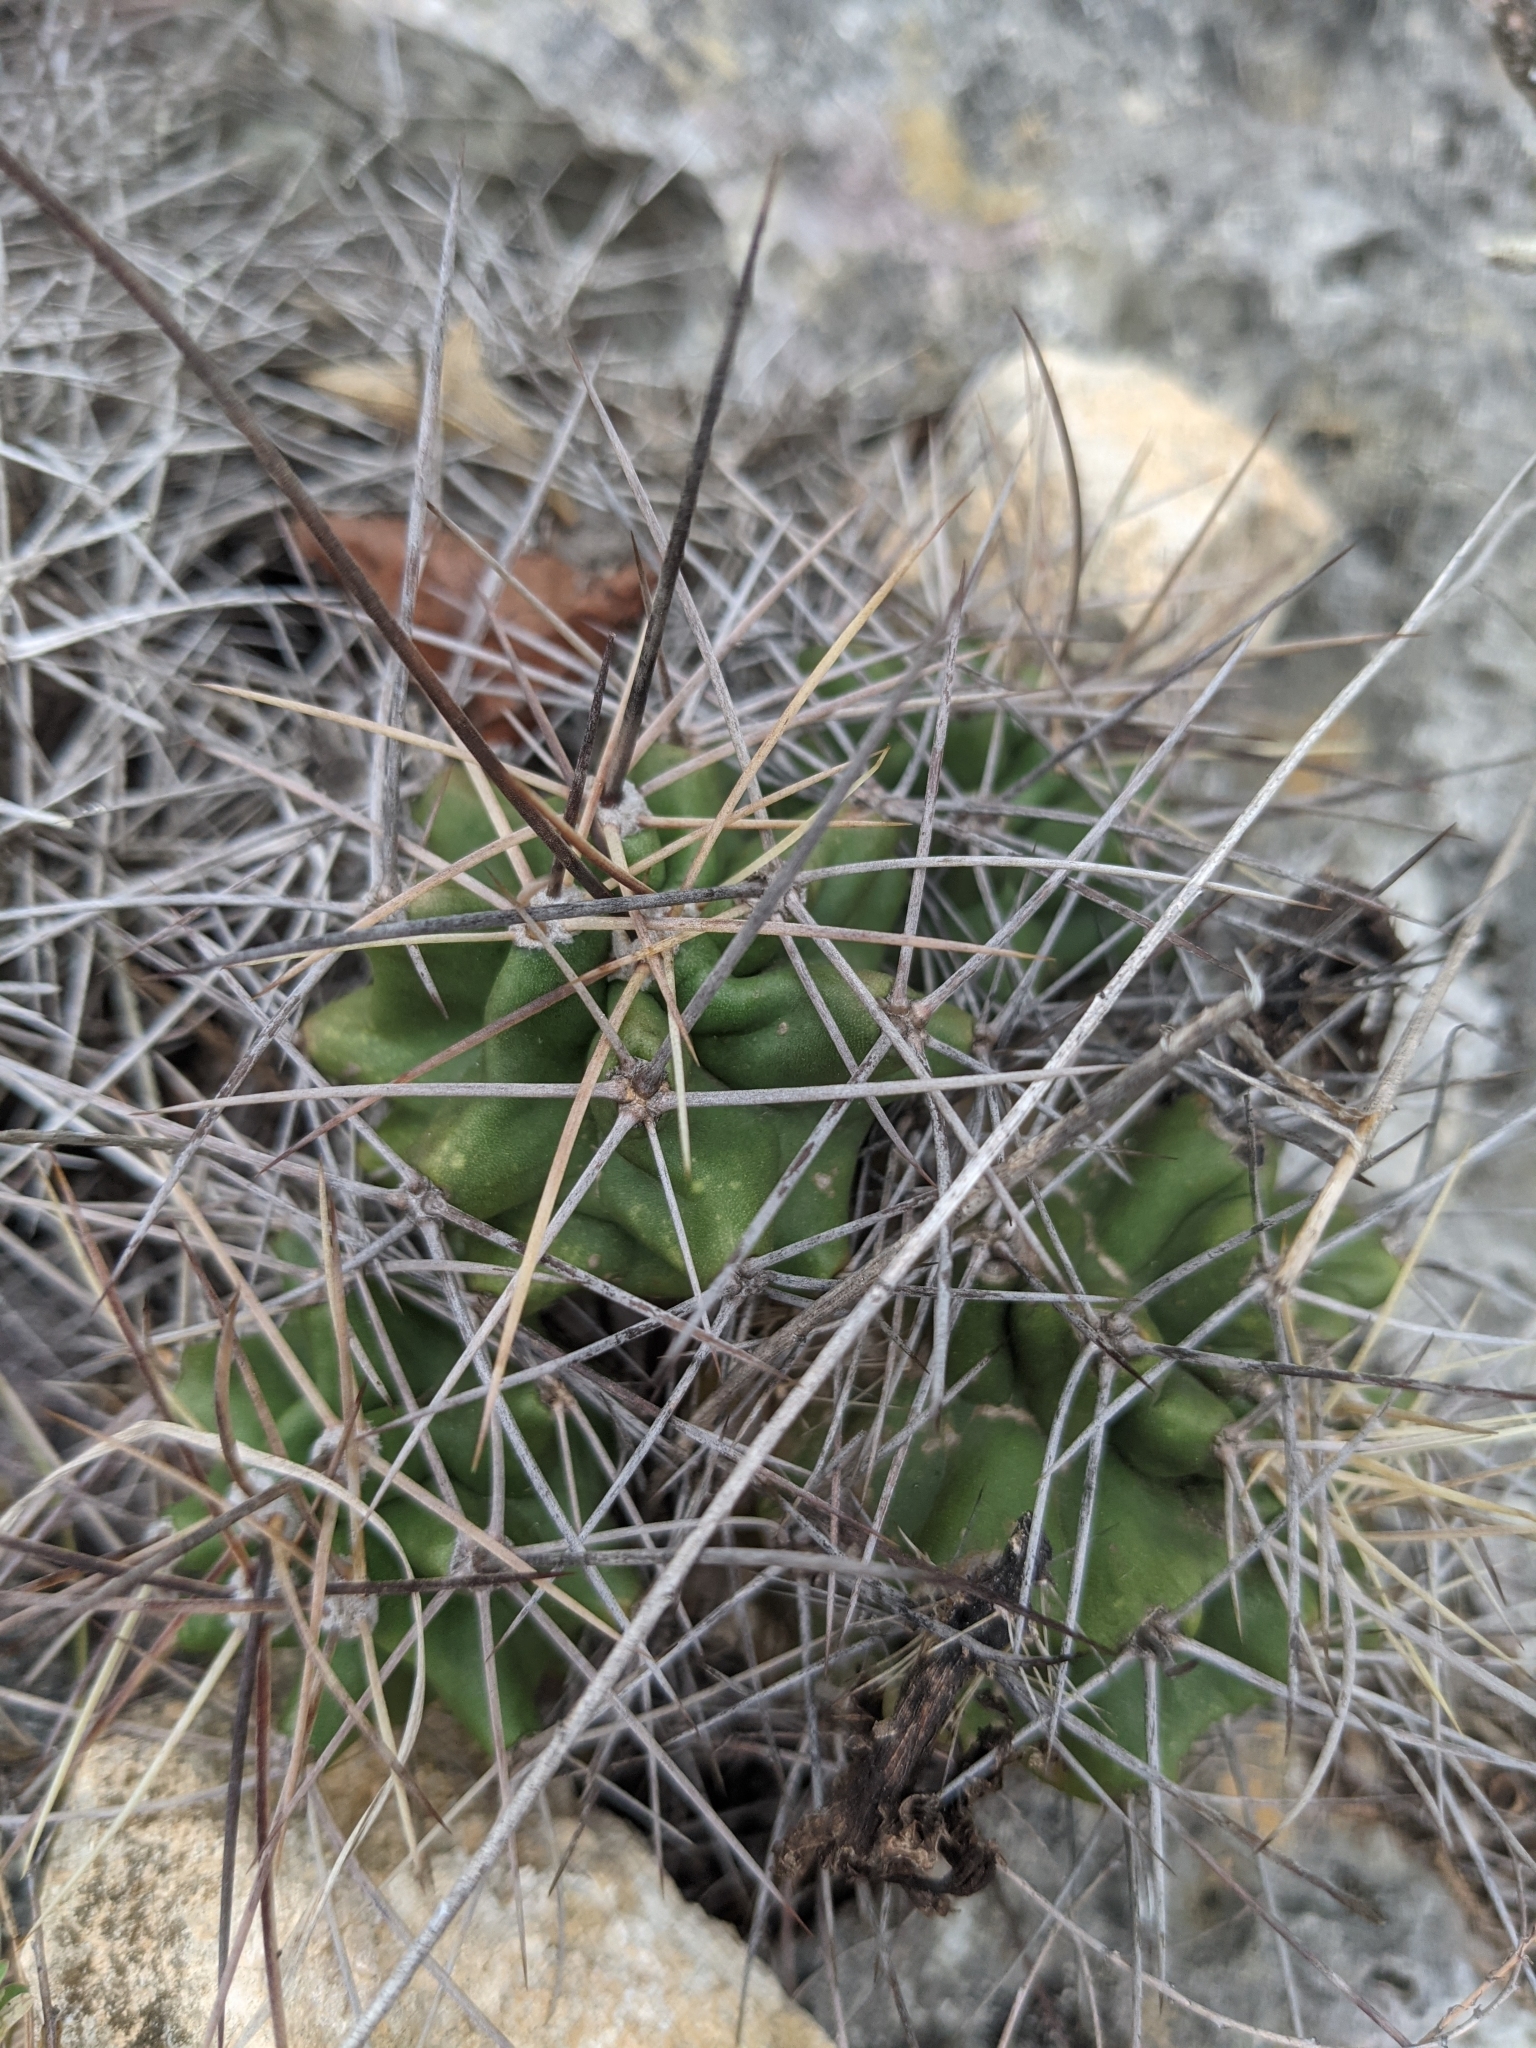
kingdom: Plantae
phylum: Tracheophyta
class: Magnoliopsida
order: Caryophyllales
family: Cactaceae
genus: Echinocereus
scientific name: Echinocereus coccineus
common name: Scarlet hedgehog cactus
